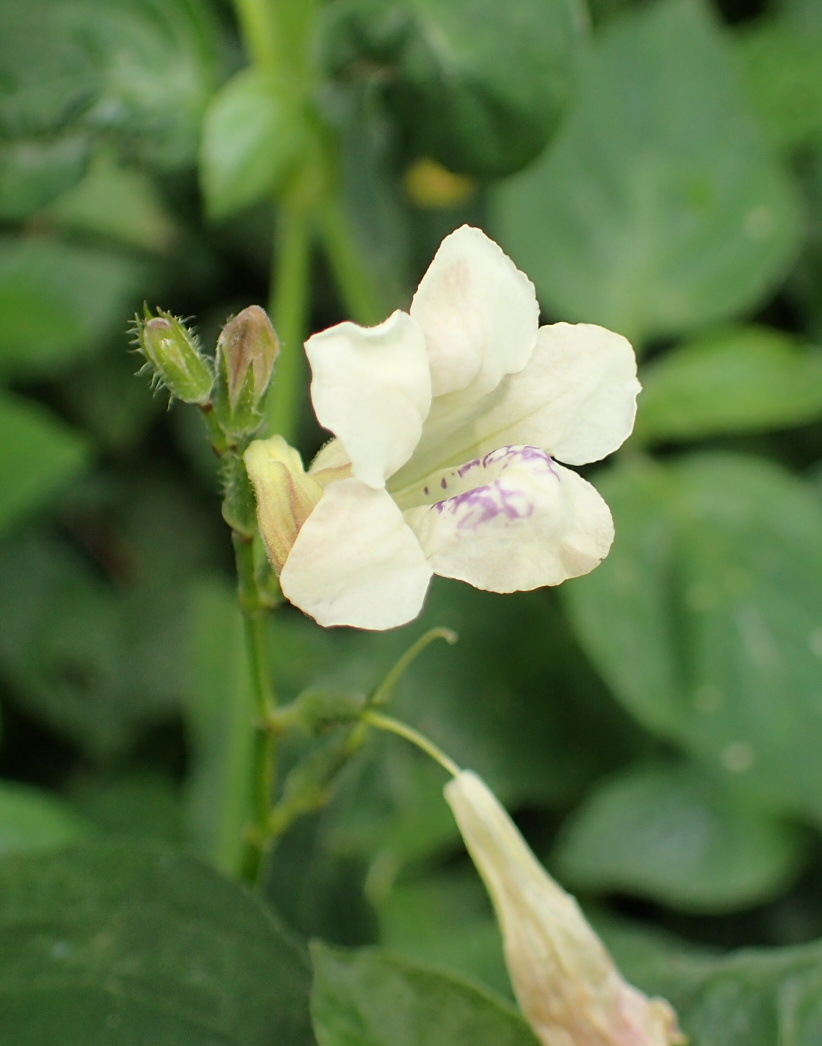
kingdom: Plantae
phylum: Tracheophyta
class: Magnoliopsida
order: Lamiales
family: Acanthaceae
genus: Asystasia
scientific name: Asystasia intrusa
